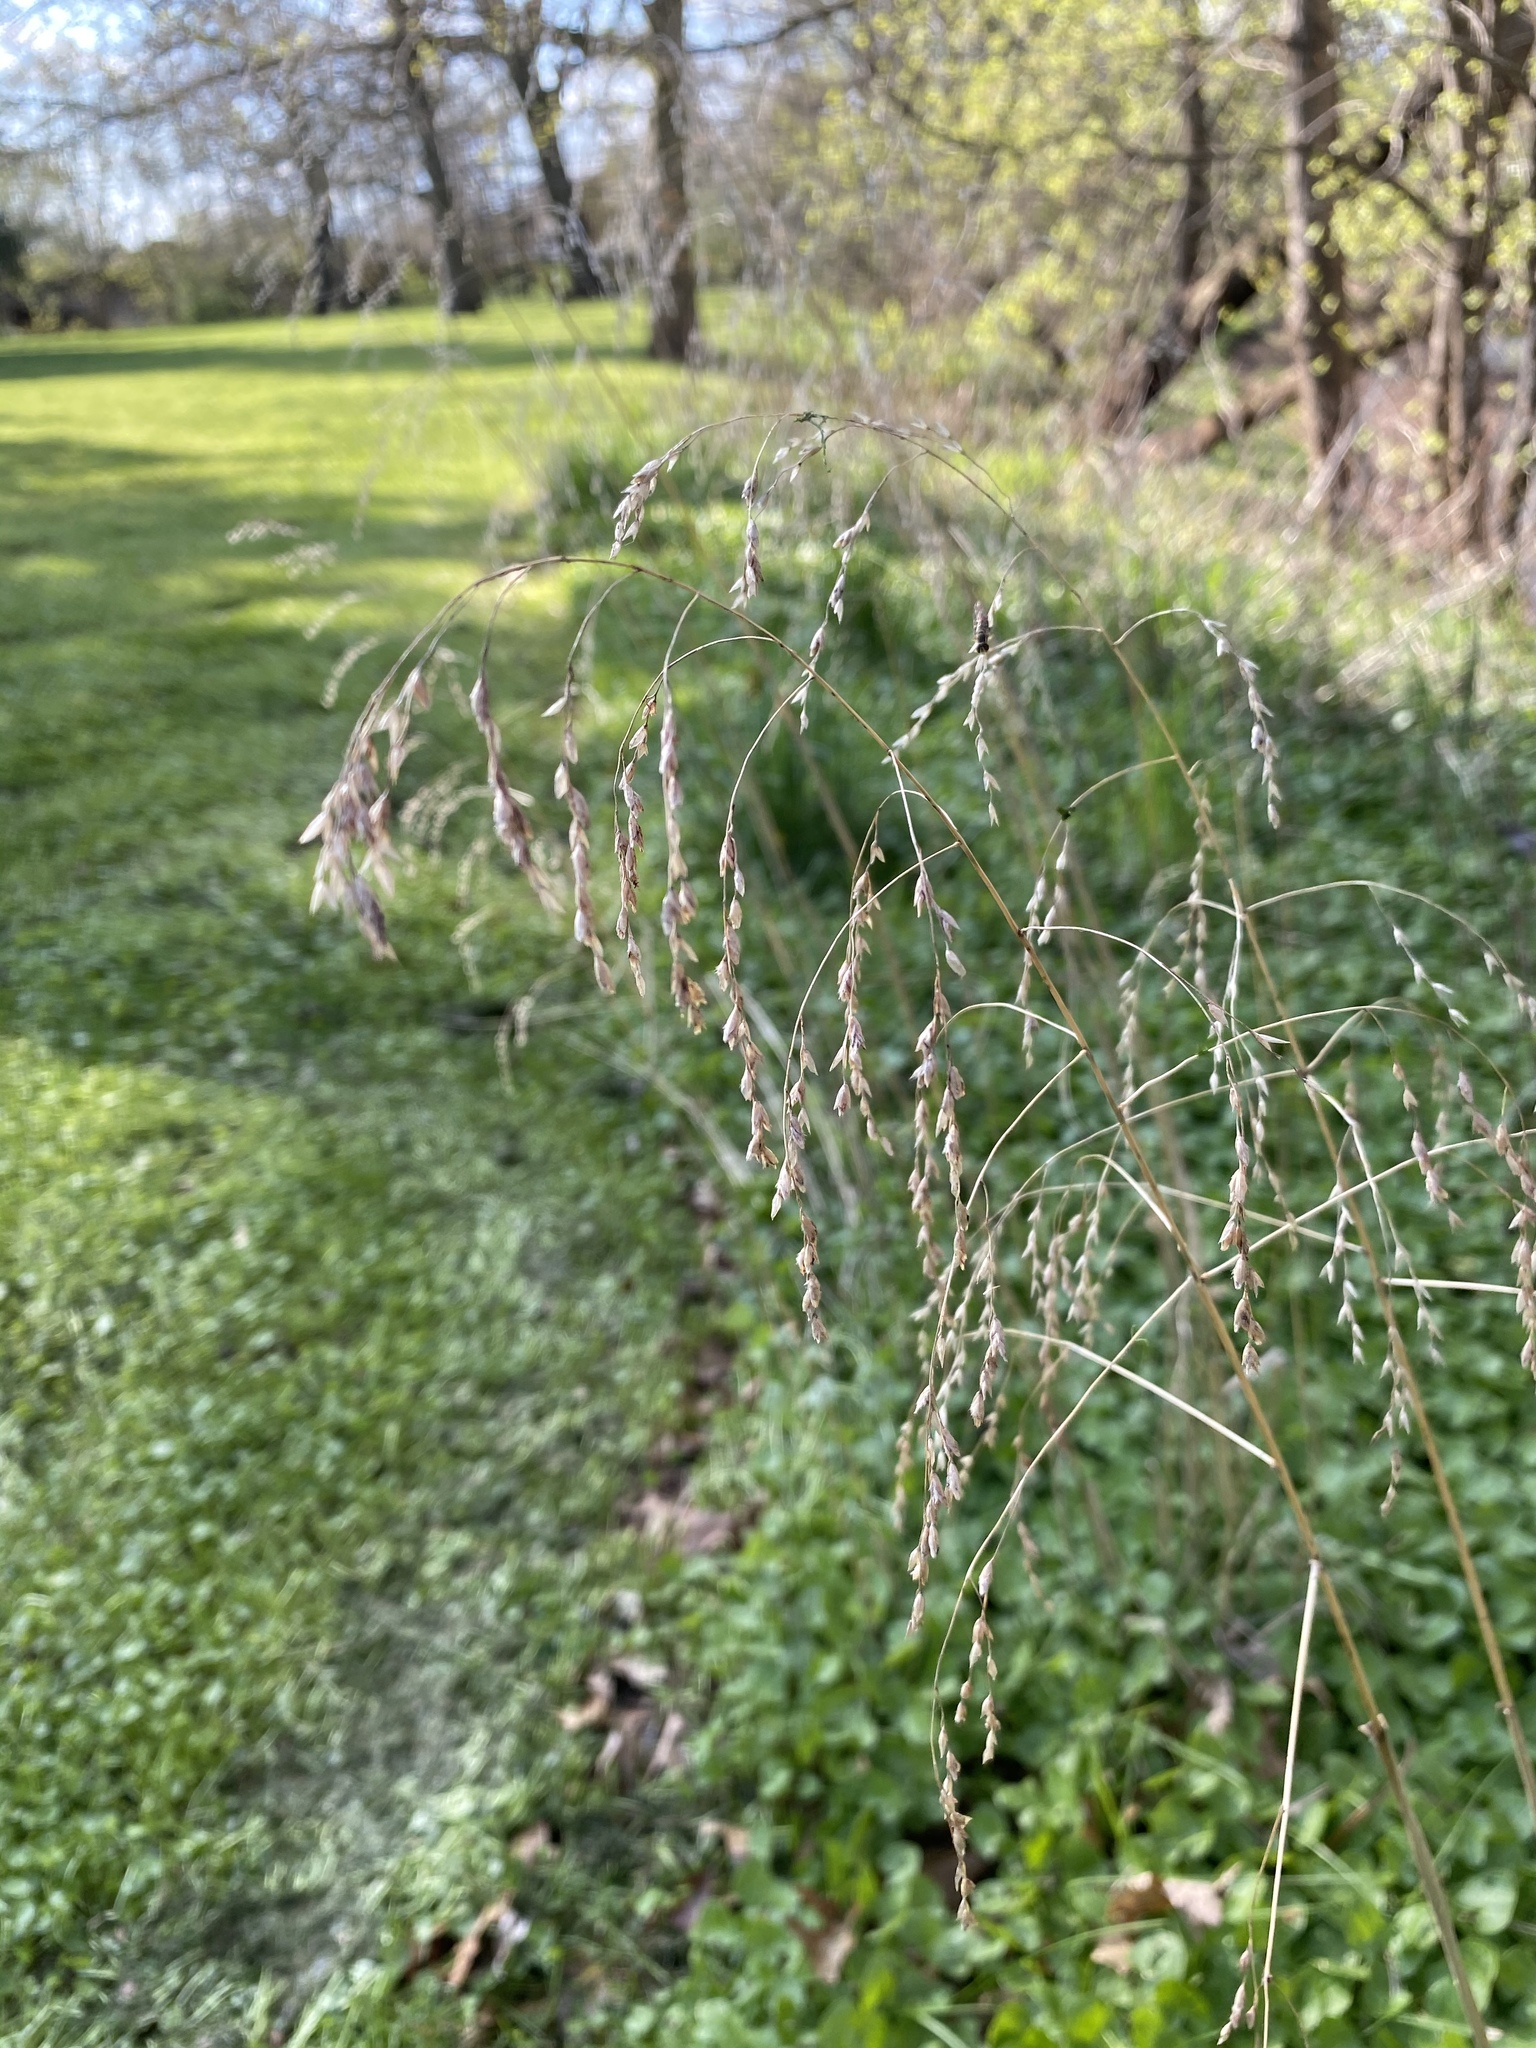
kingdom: Plantae
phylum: Tracheophyta
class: Liliopsida
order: Poales
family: Poaceae
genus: Tridens
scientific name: Tridens flavus
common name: Purpletop
